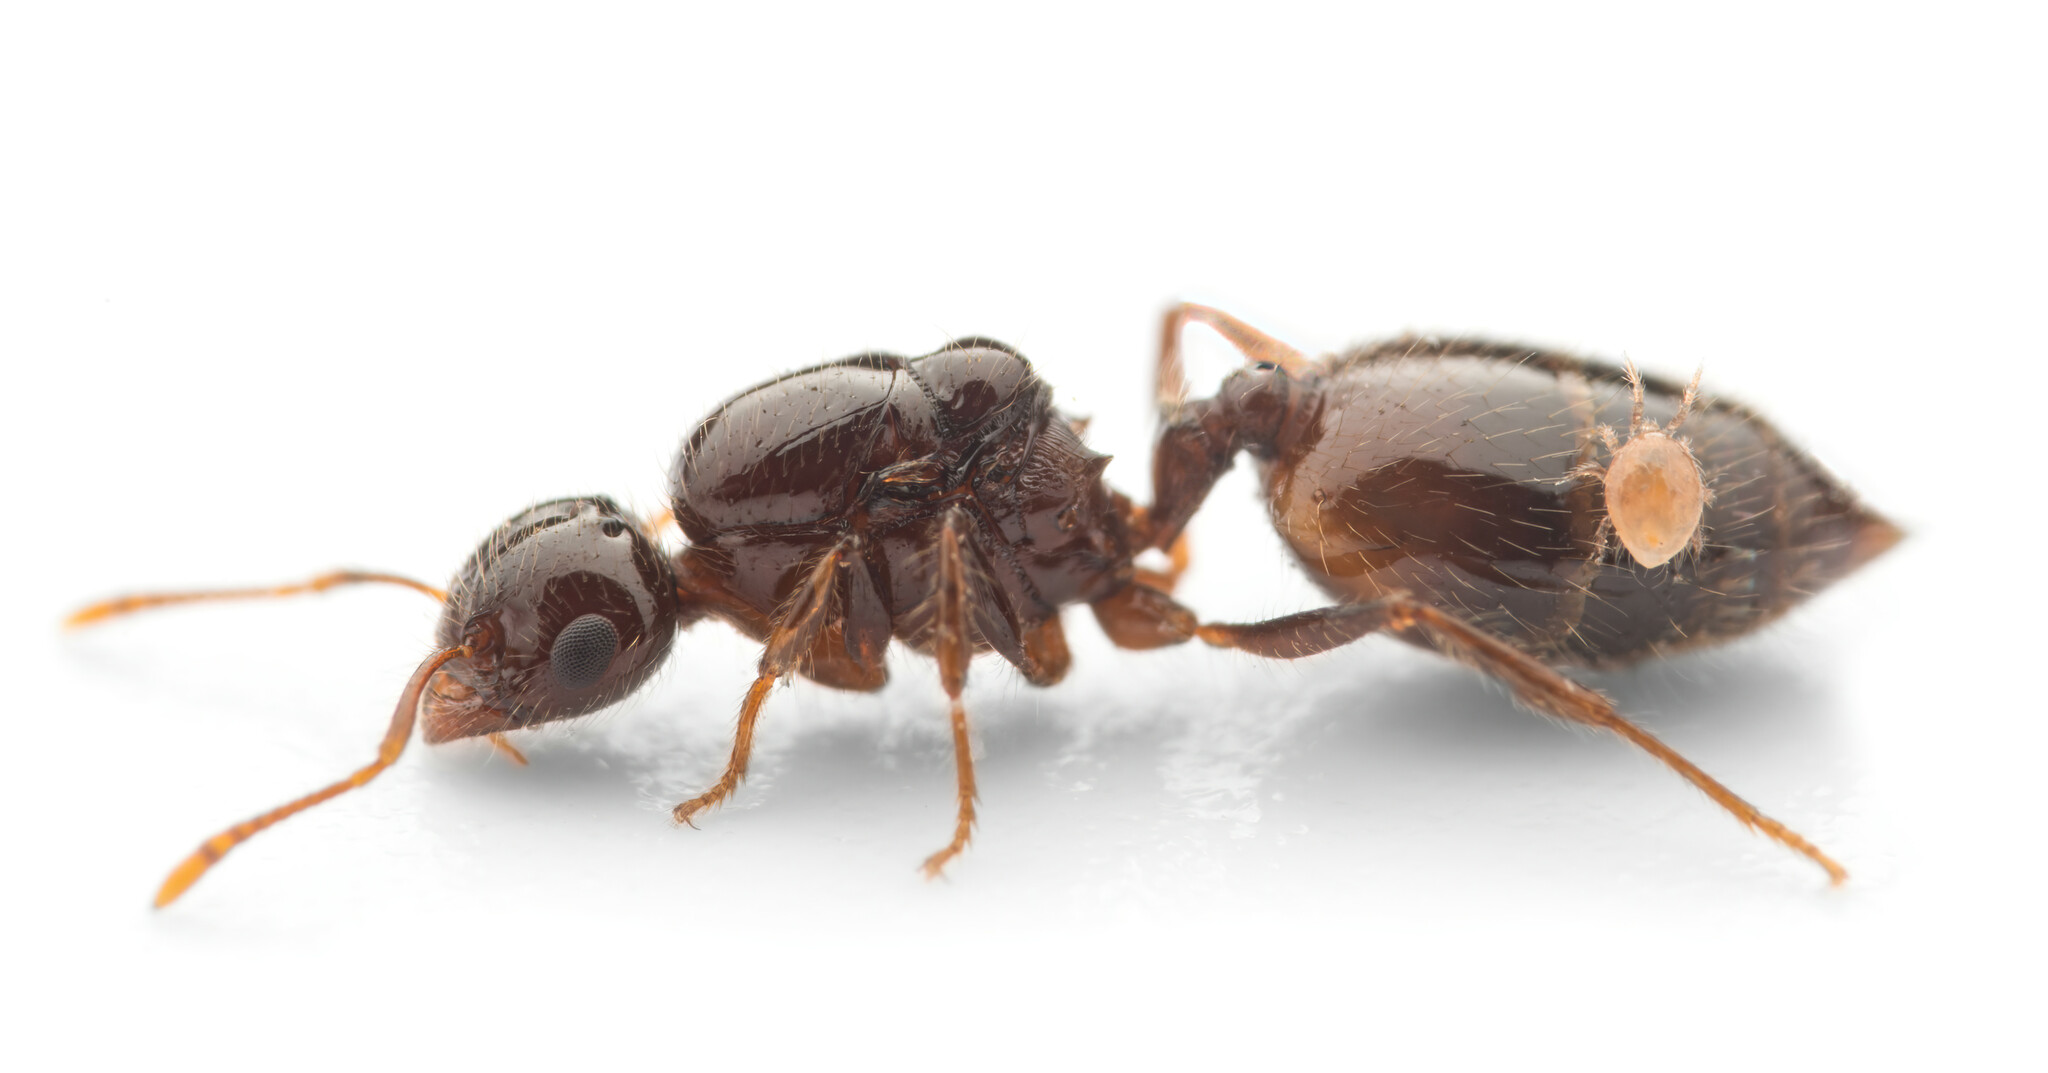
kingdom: Animalia
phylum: Arthropoda
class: Insecta
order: Hymenoptera
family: Formicidae
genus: Crematogaster
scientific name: Crematogaster sordidula
